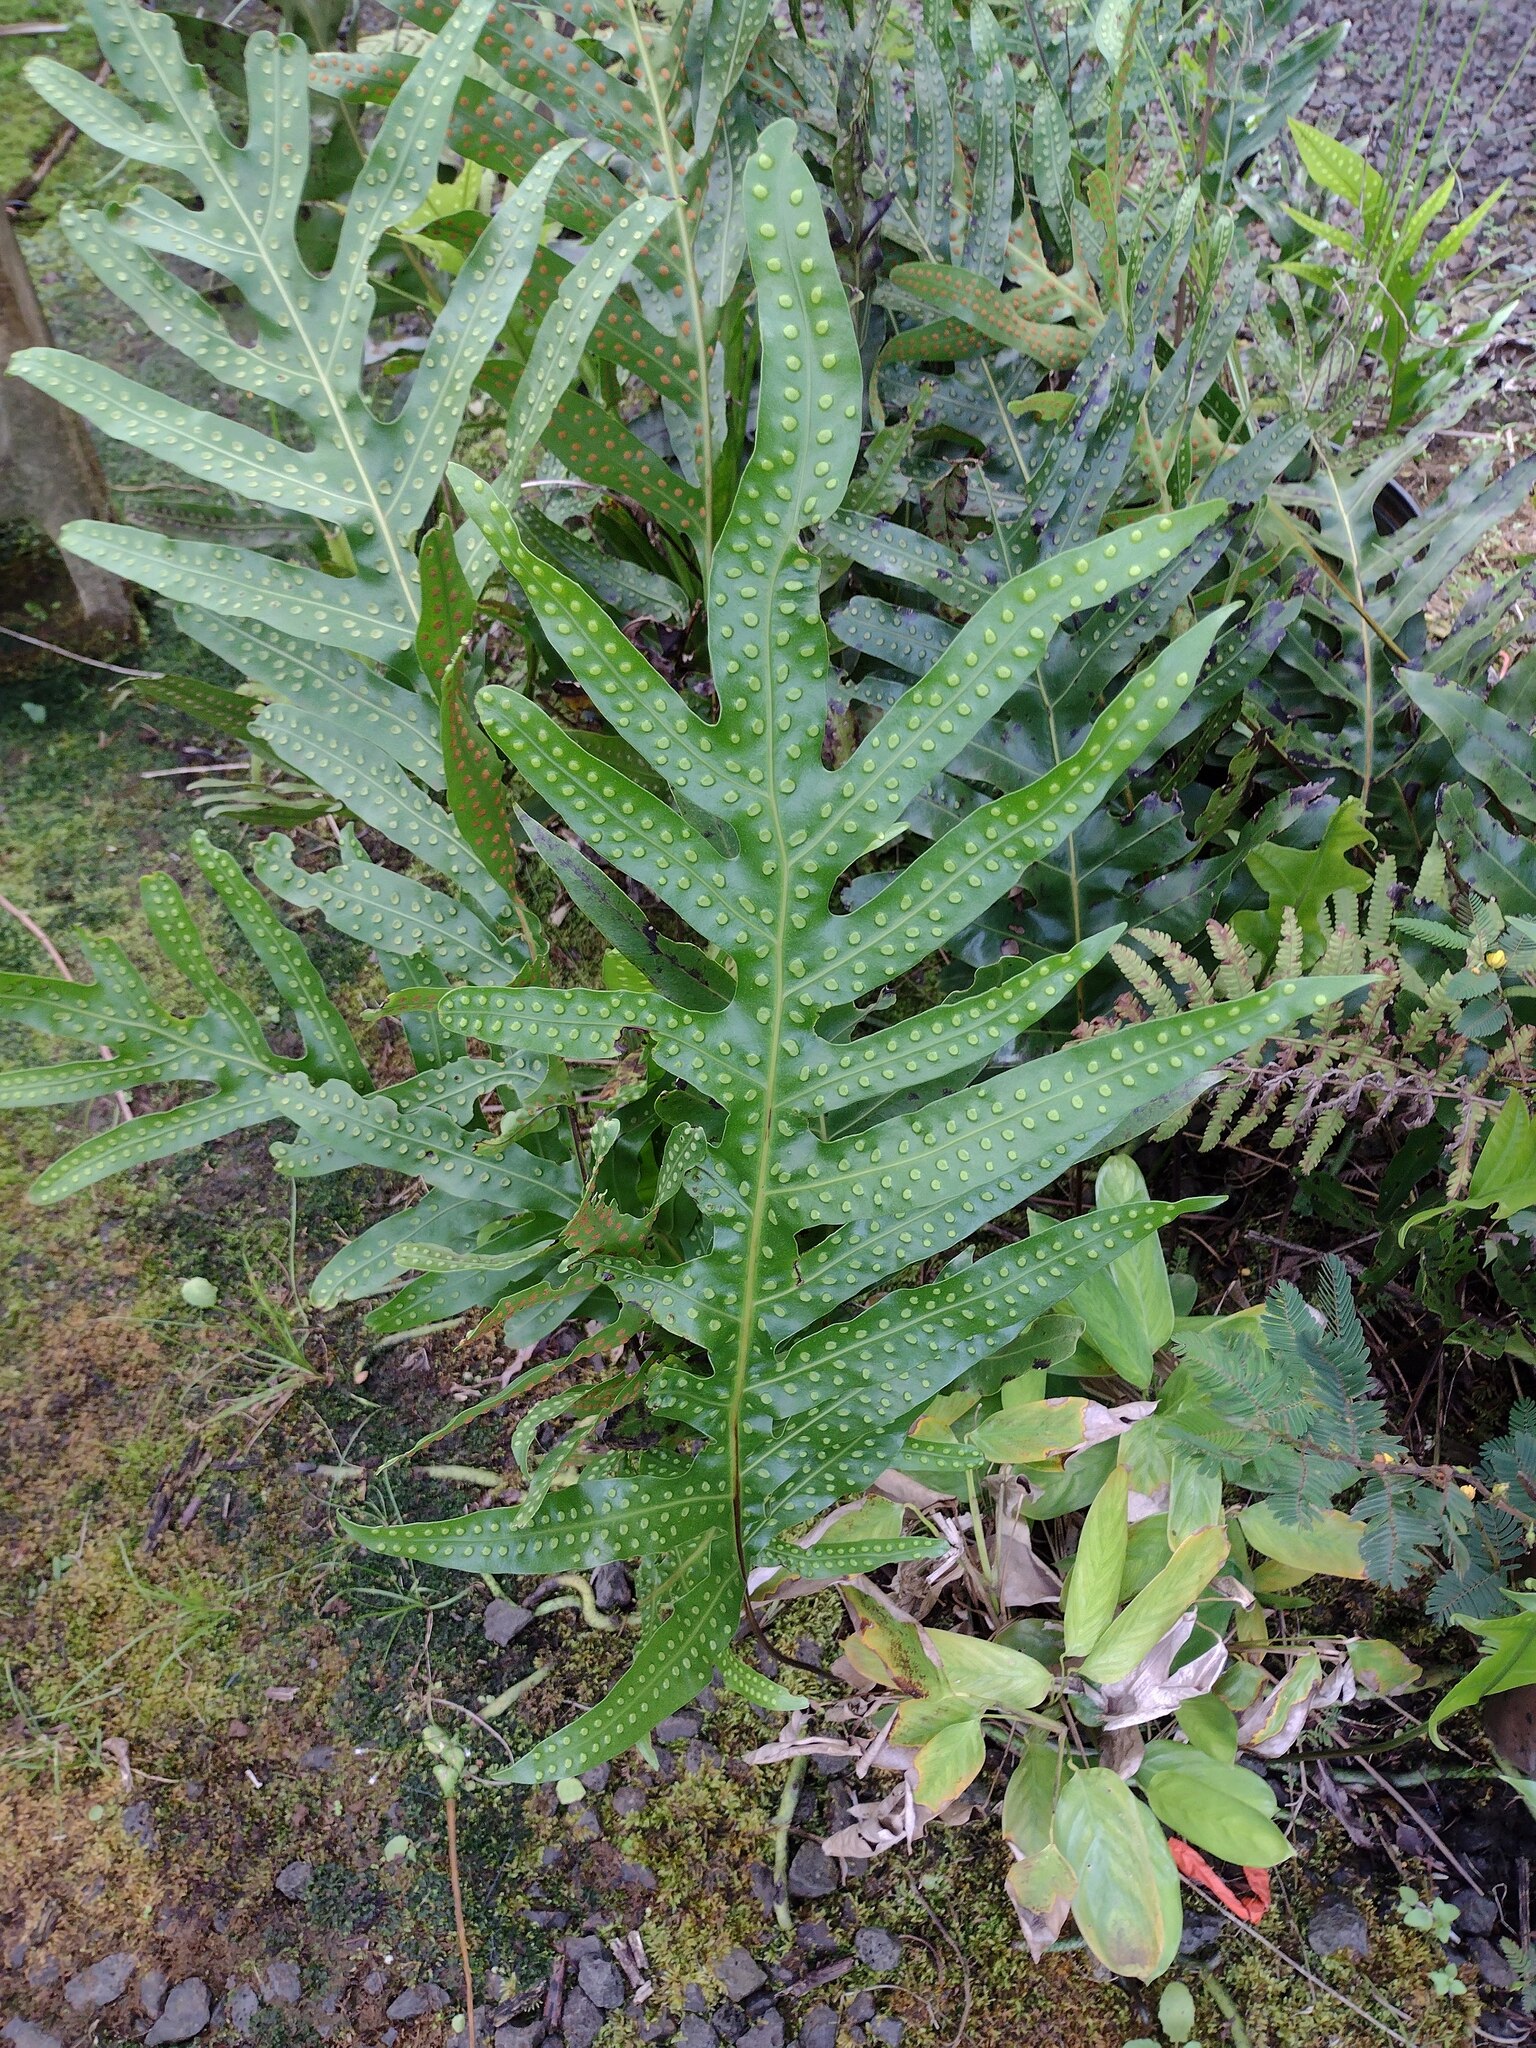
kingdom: Plantae
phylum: Tracheophyta
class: Polypodiopsida
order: Polypodiales
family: Polypodiaceae
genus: Microsorum
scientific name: Microsorum grossum
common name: Musk fern
